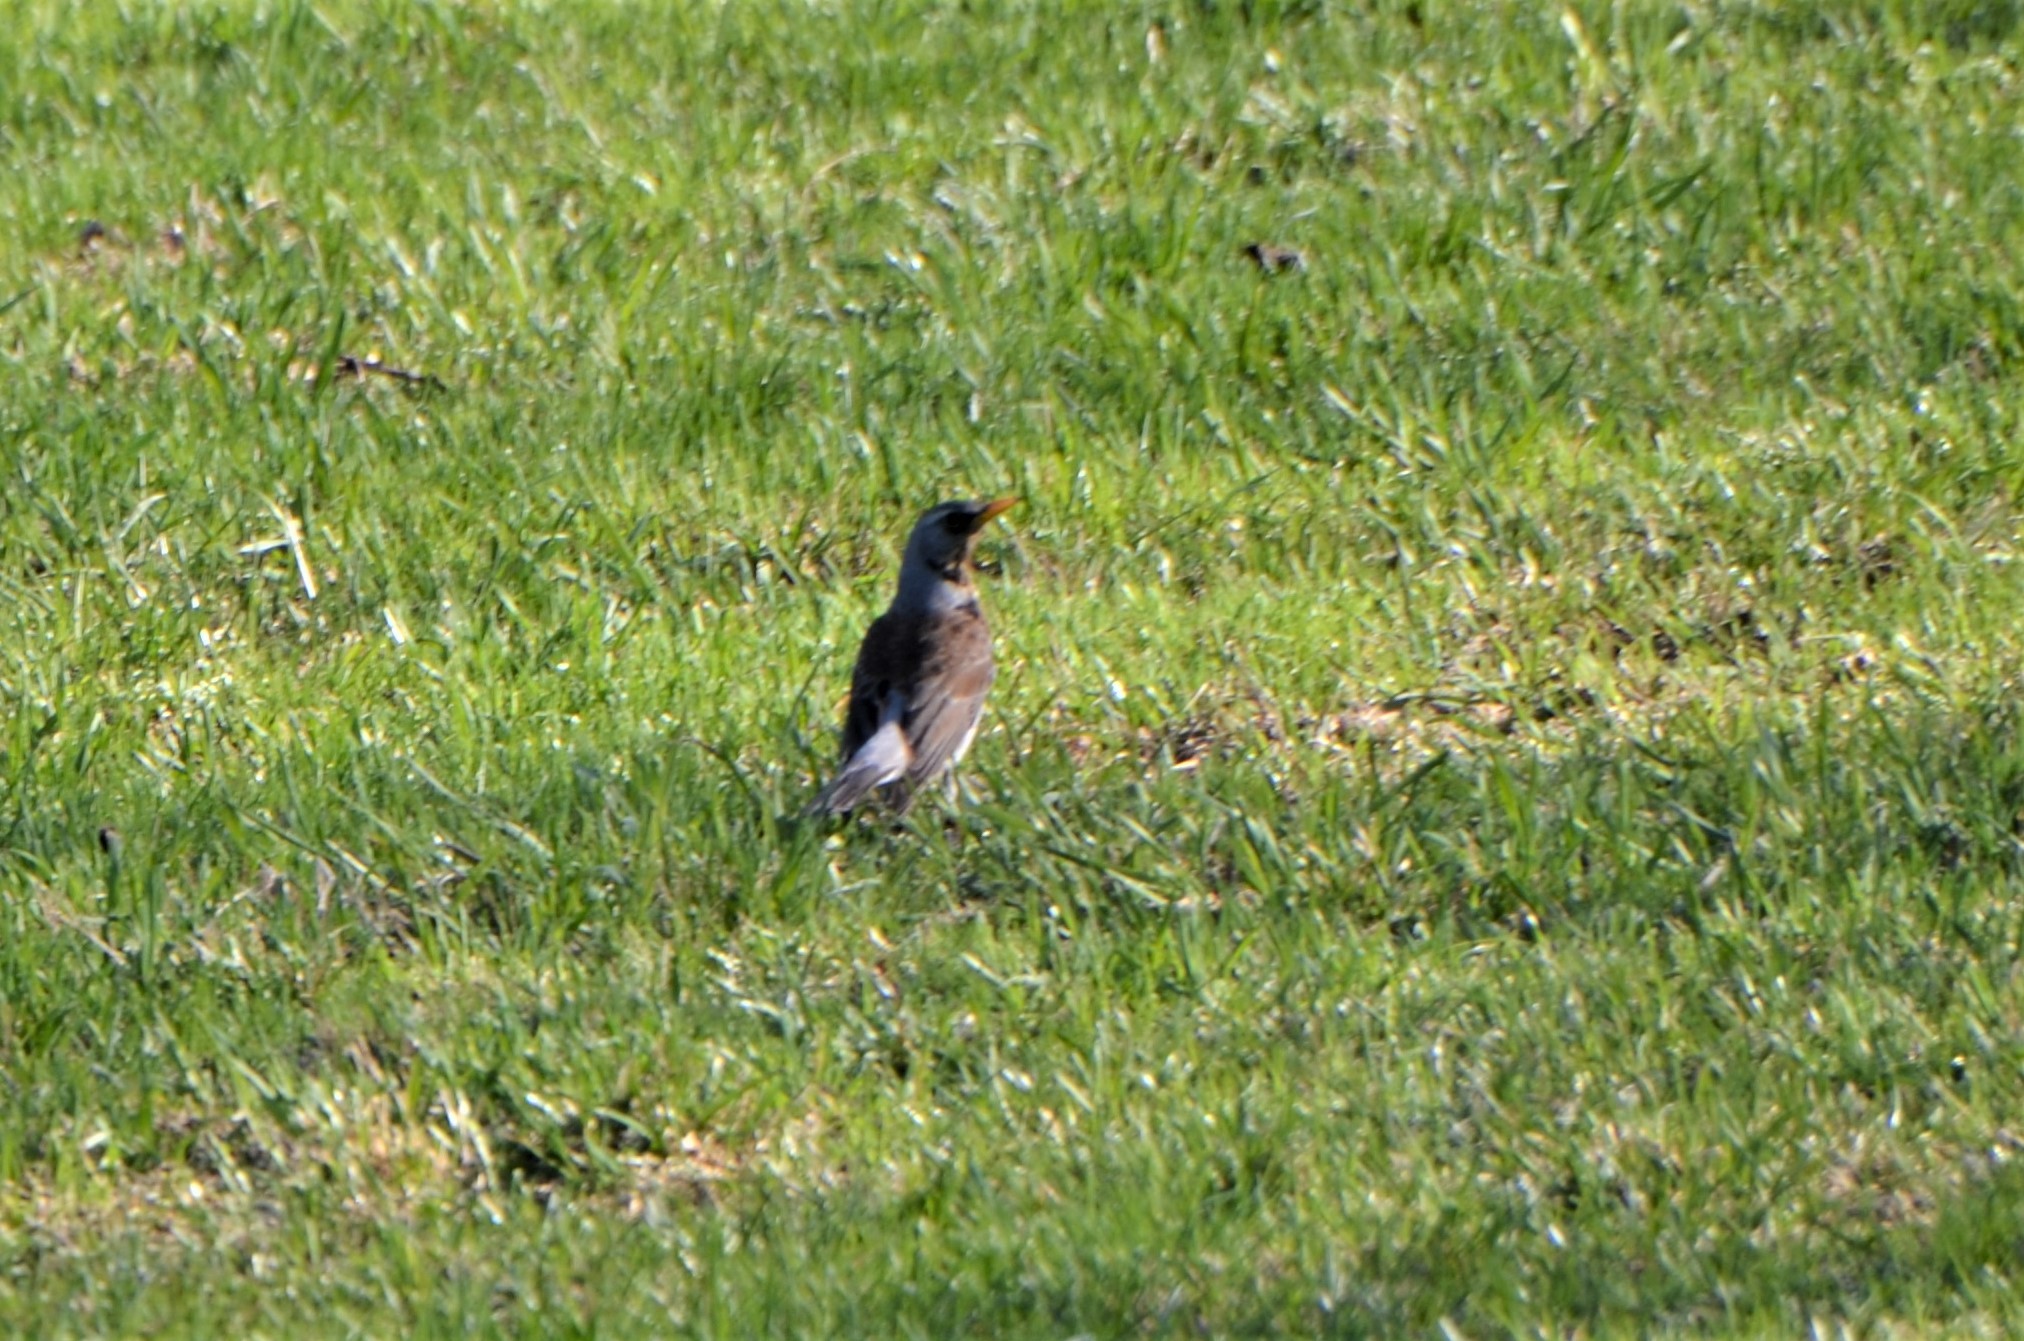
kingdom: Animalia
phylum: Chordata
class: Aves
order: Passeriformes
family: Turdidae
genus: Turdus
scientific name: Turdus pilaris
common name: Fieldfare
